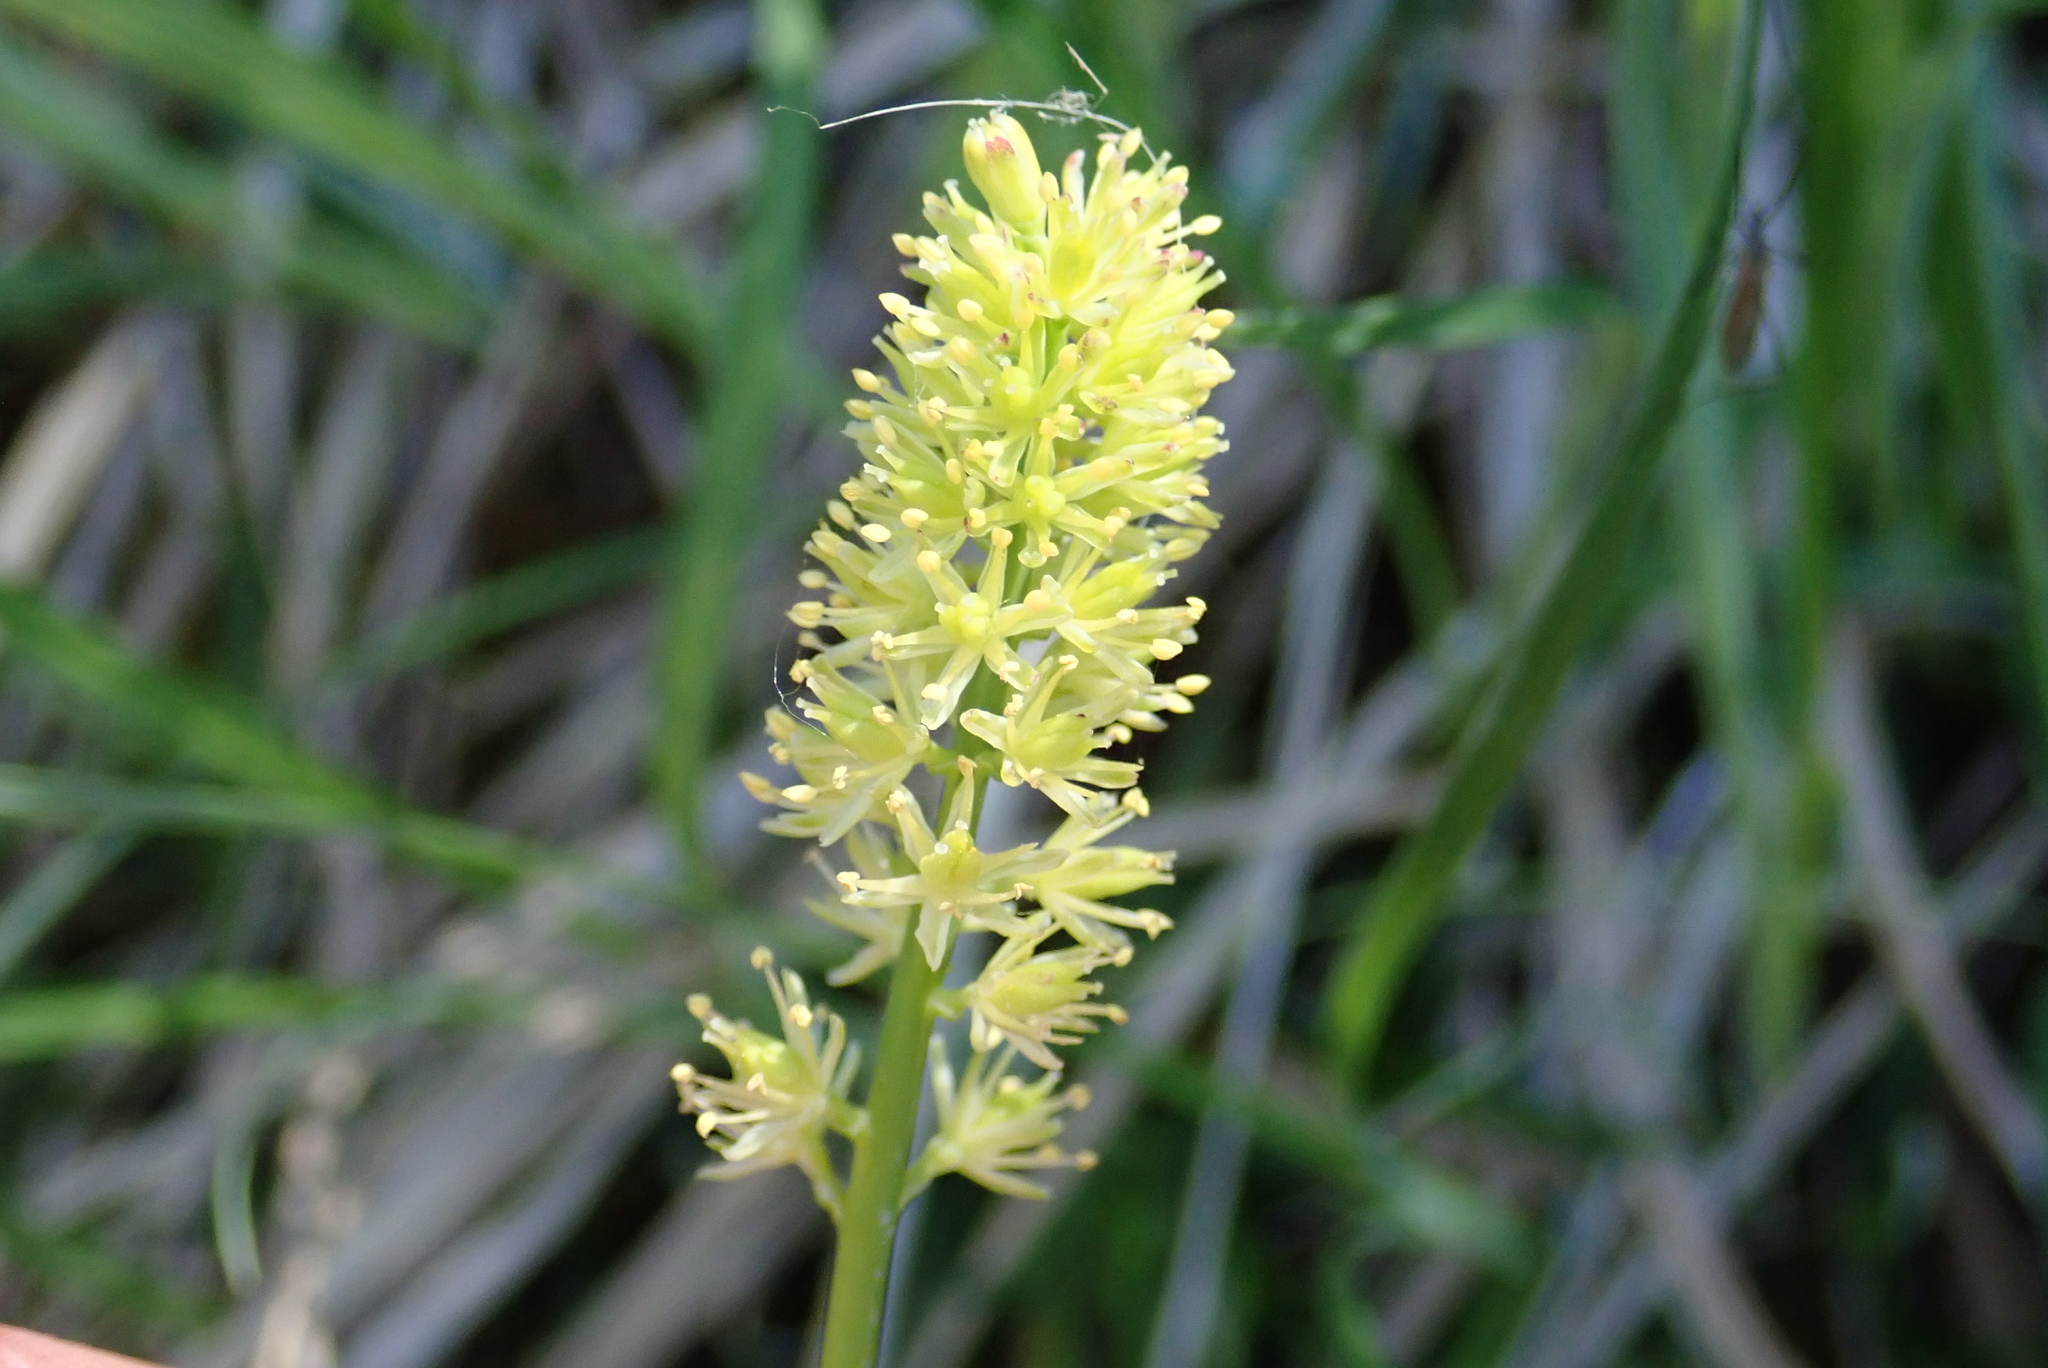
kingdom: Plantae
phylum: Tracheophyta
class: Liliopsida
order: Alismatales
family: Tofieldiaceae
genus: Tofieldia
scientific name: Tofieldia calyculata
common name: German-asphodel
